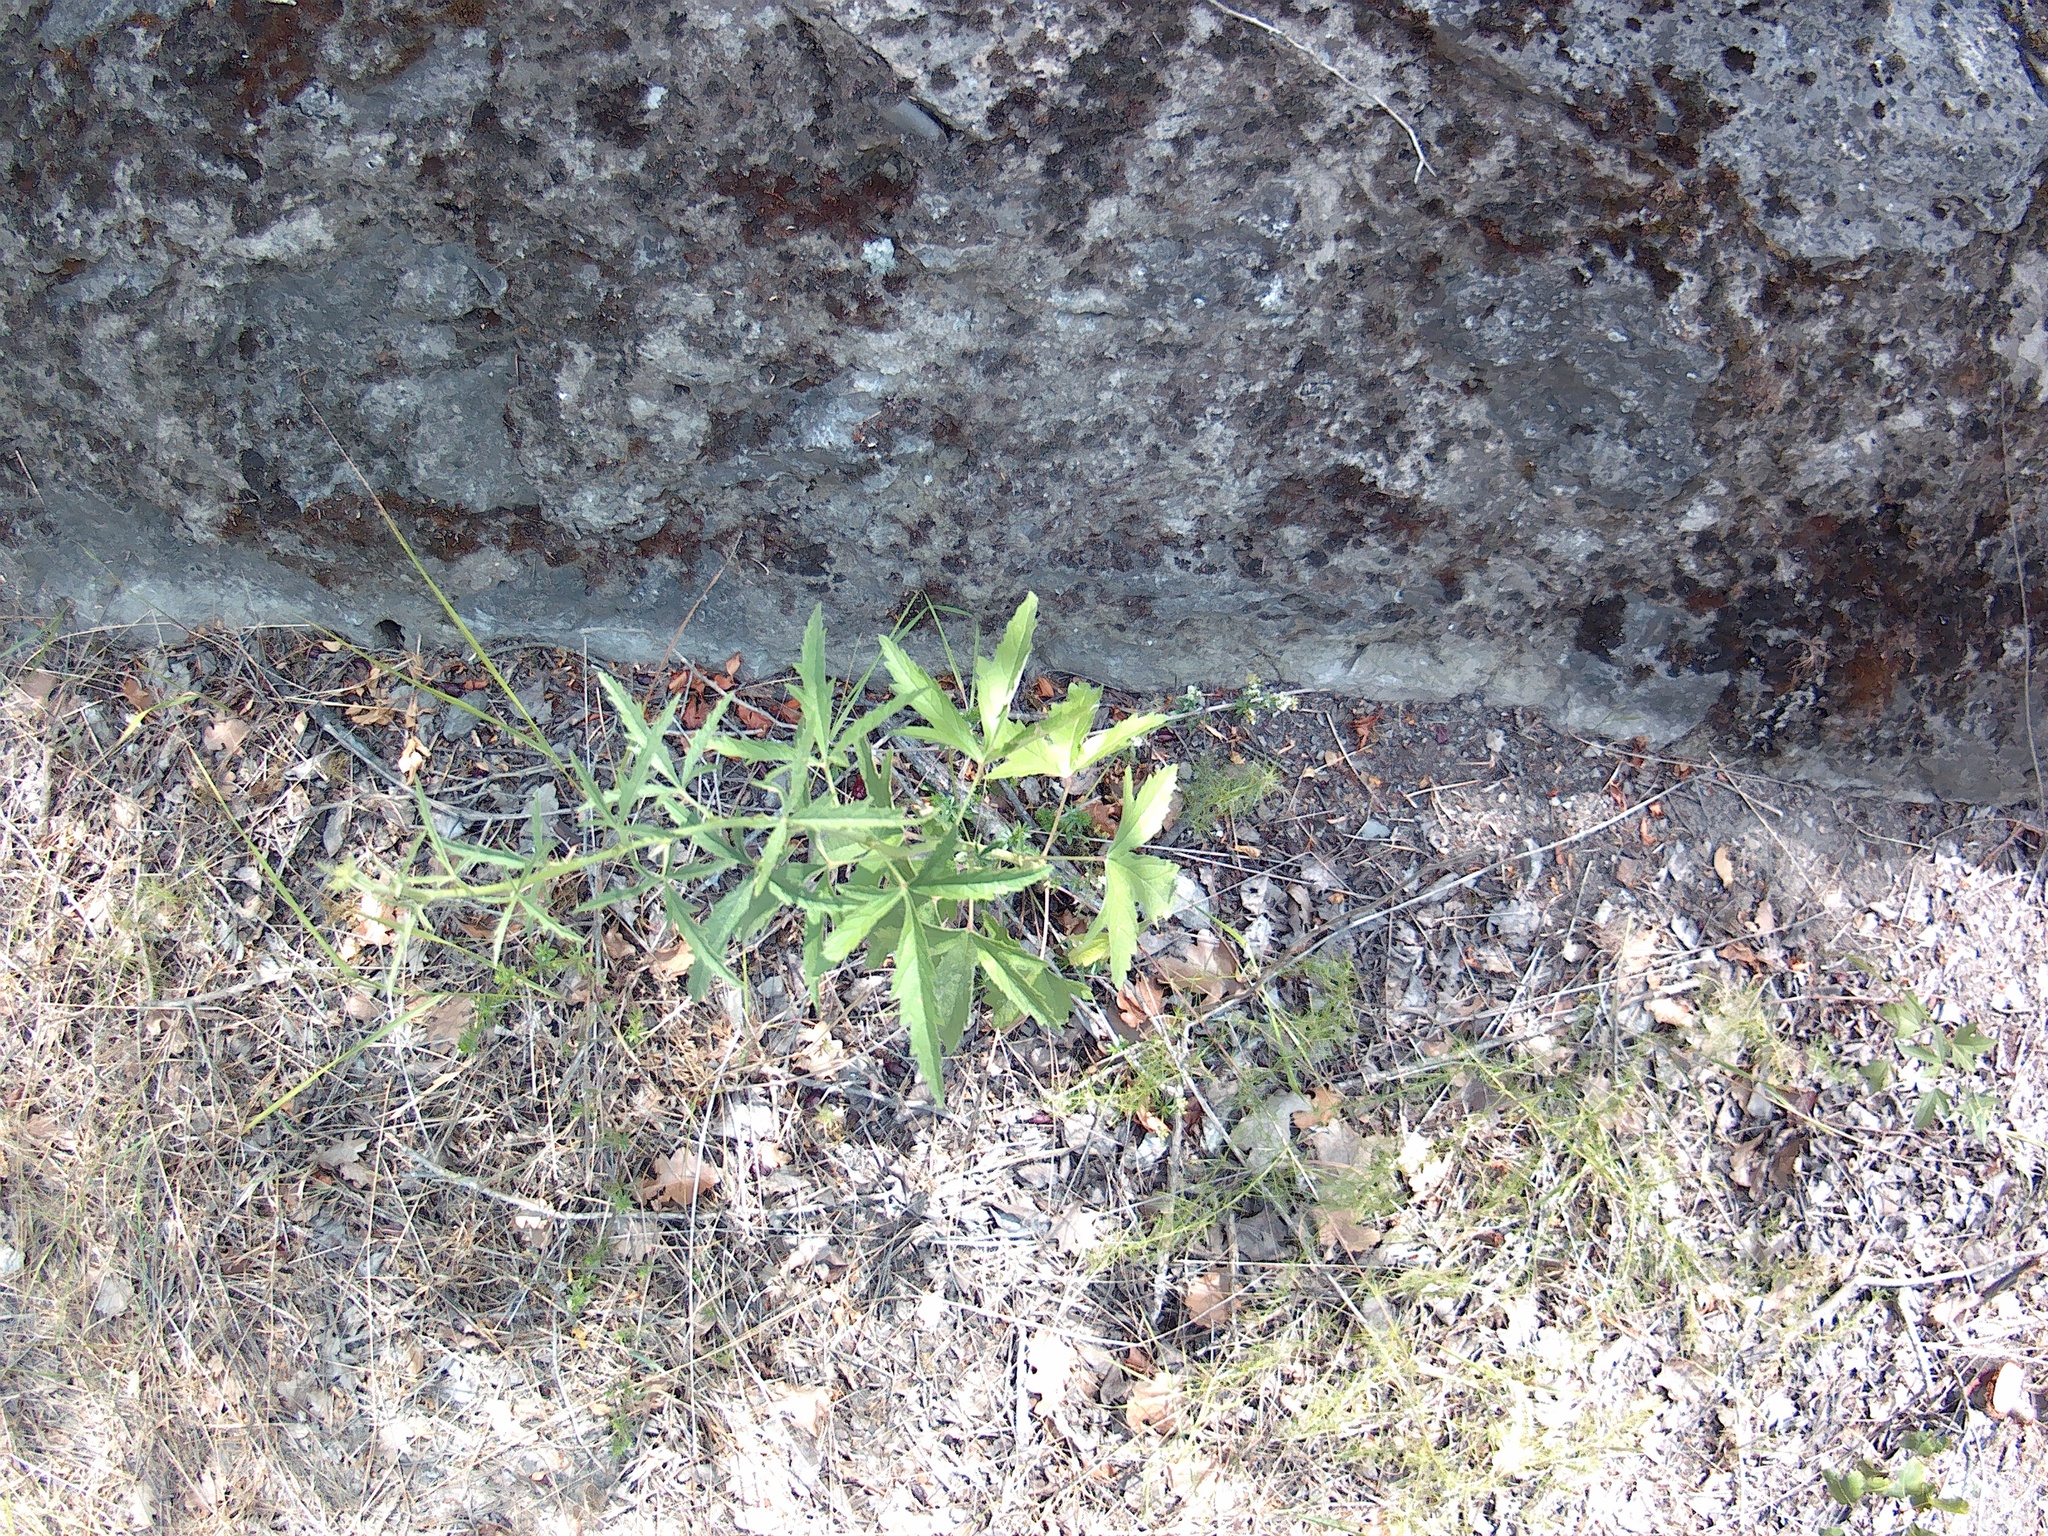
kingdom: Plantae
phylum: Tracheophyta
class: Magnoliopsida
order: Malvales
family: Malvaceae
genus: Althaea
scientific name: Althaea cannabina
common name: Palm-leaf marshmallow
